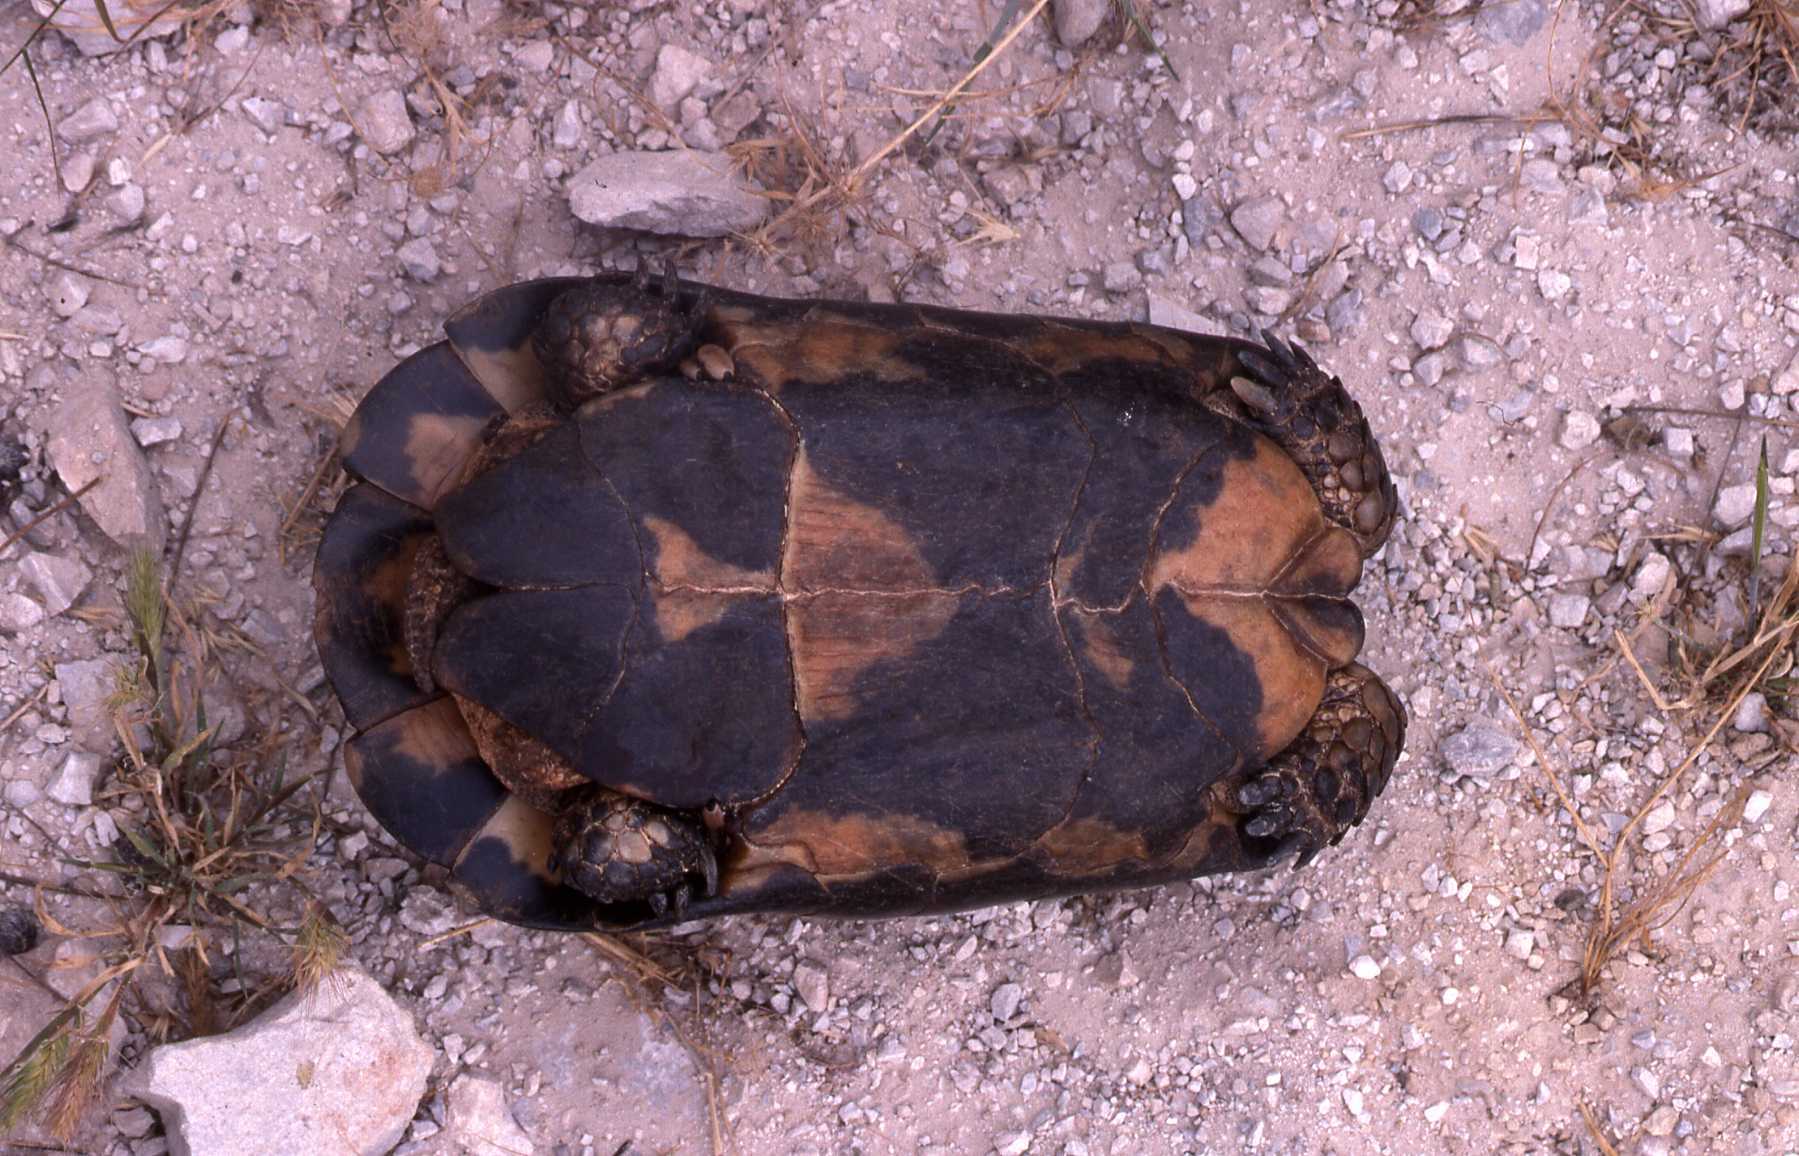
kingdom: Animalia
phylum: Chordata
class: Testudines
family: Testudinidae
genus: Testudo
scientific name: Testudo marginata
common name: Marginated tortoise
